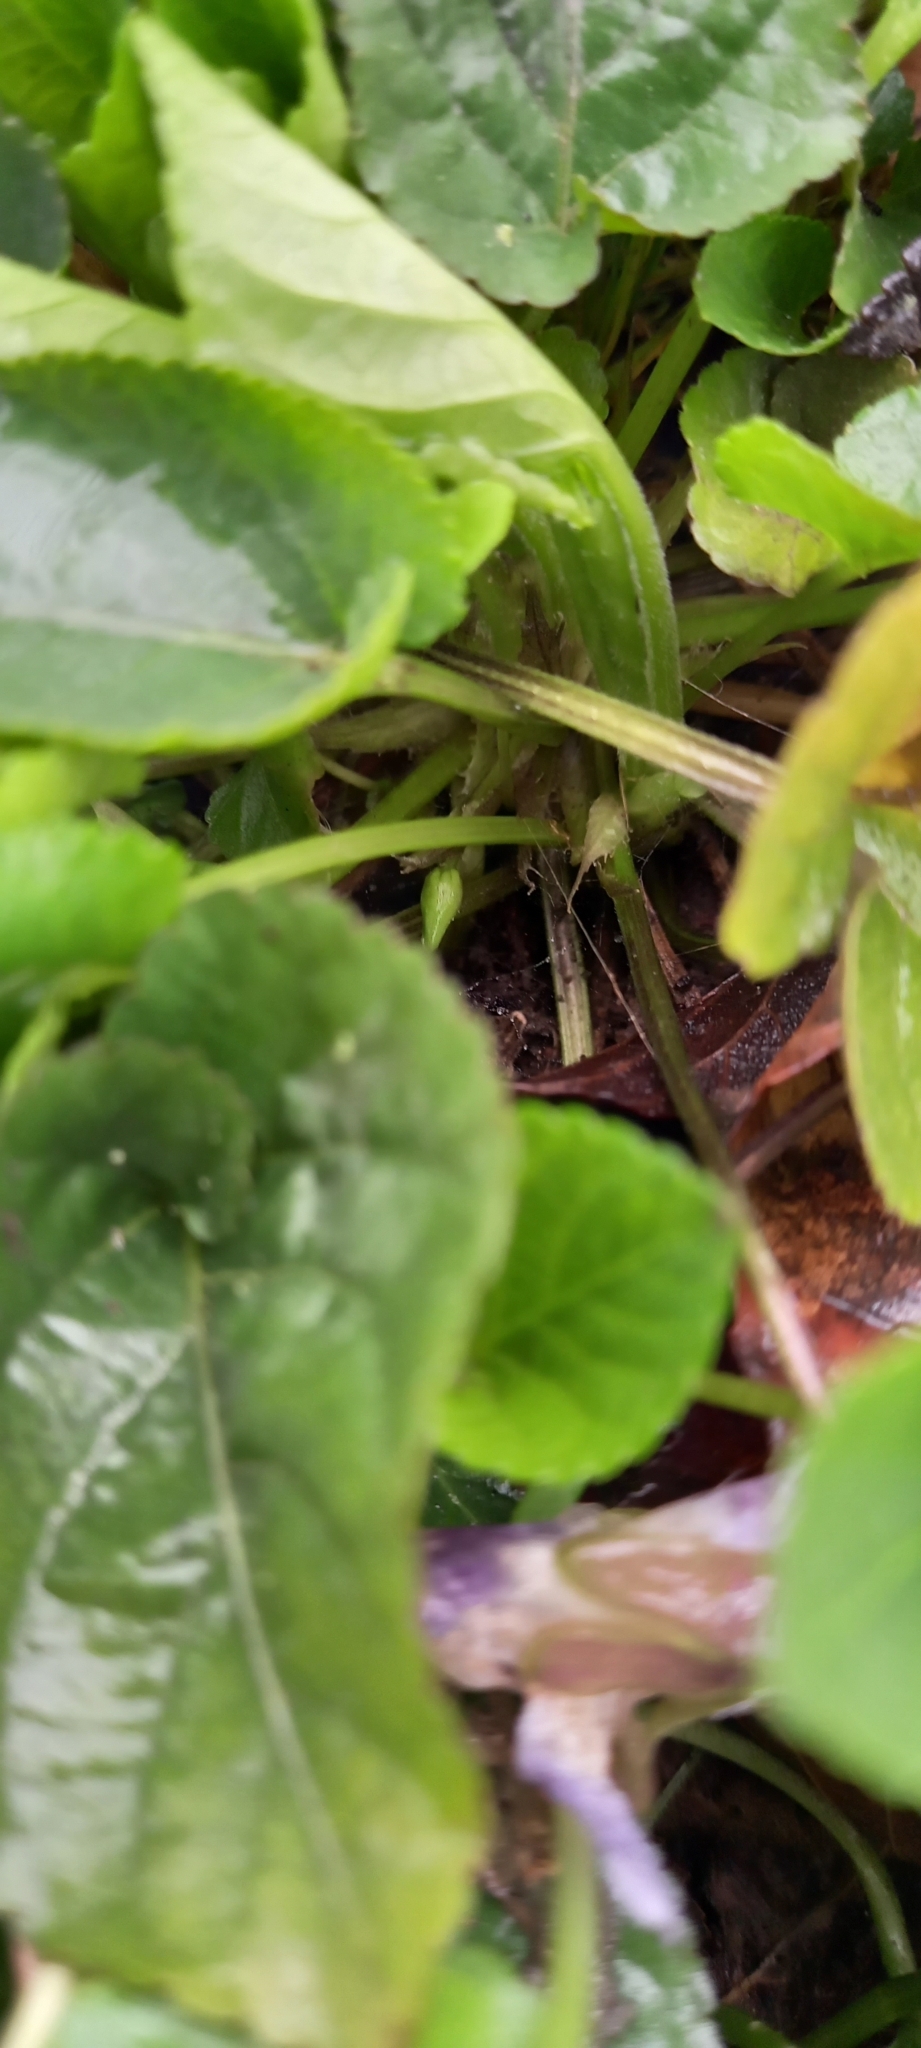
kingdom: Plantae
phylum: Tracheophyta
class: Magnoliopsida
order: Malpighiales
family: Violaceae
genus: Viola
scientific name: Viola suavis
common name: Russian violet
